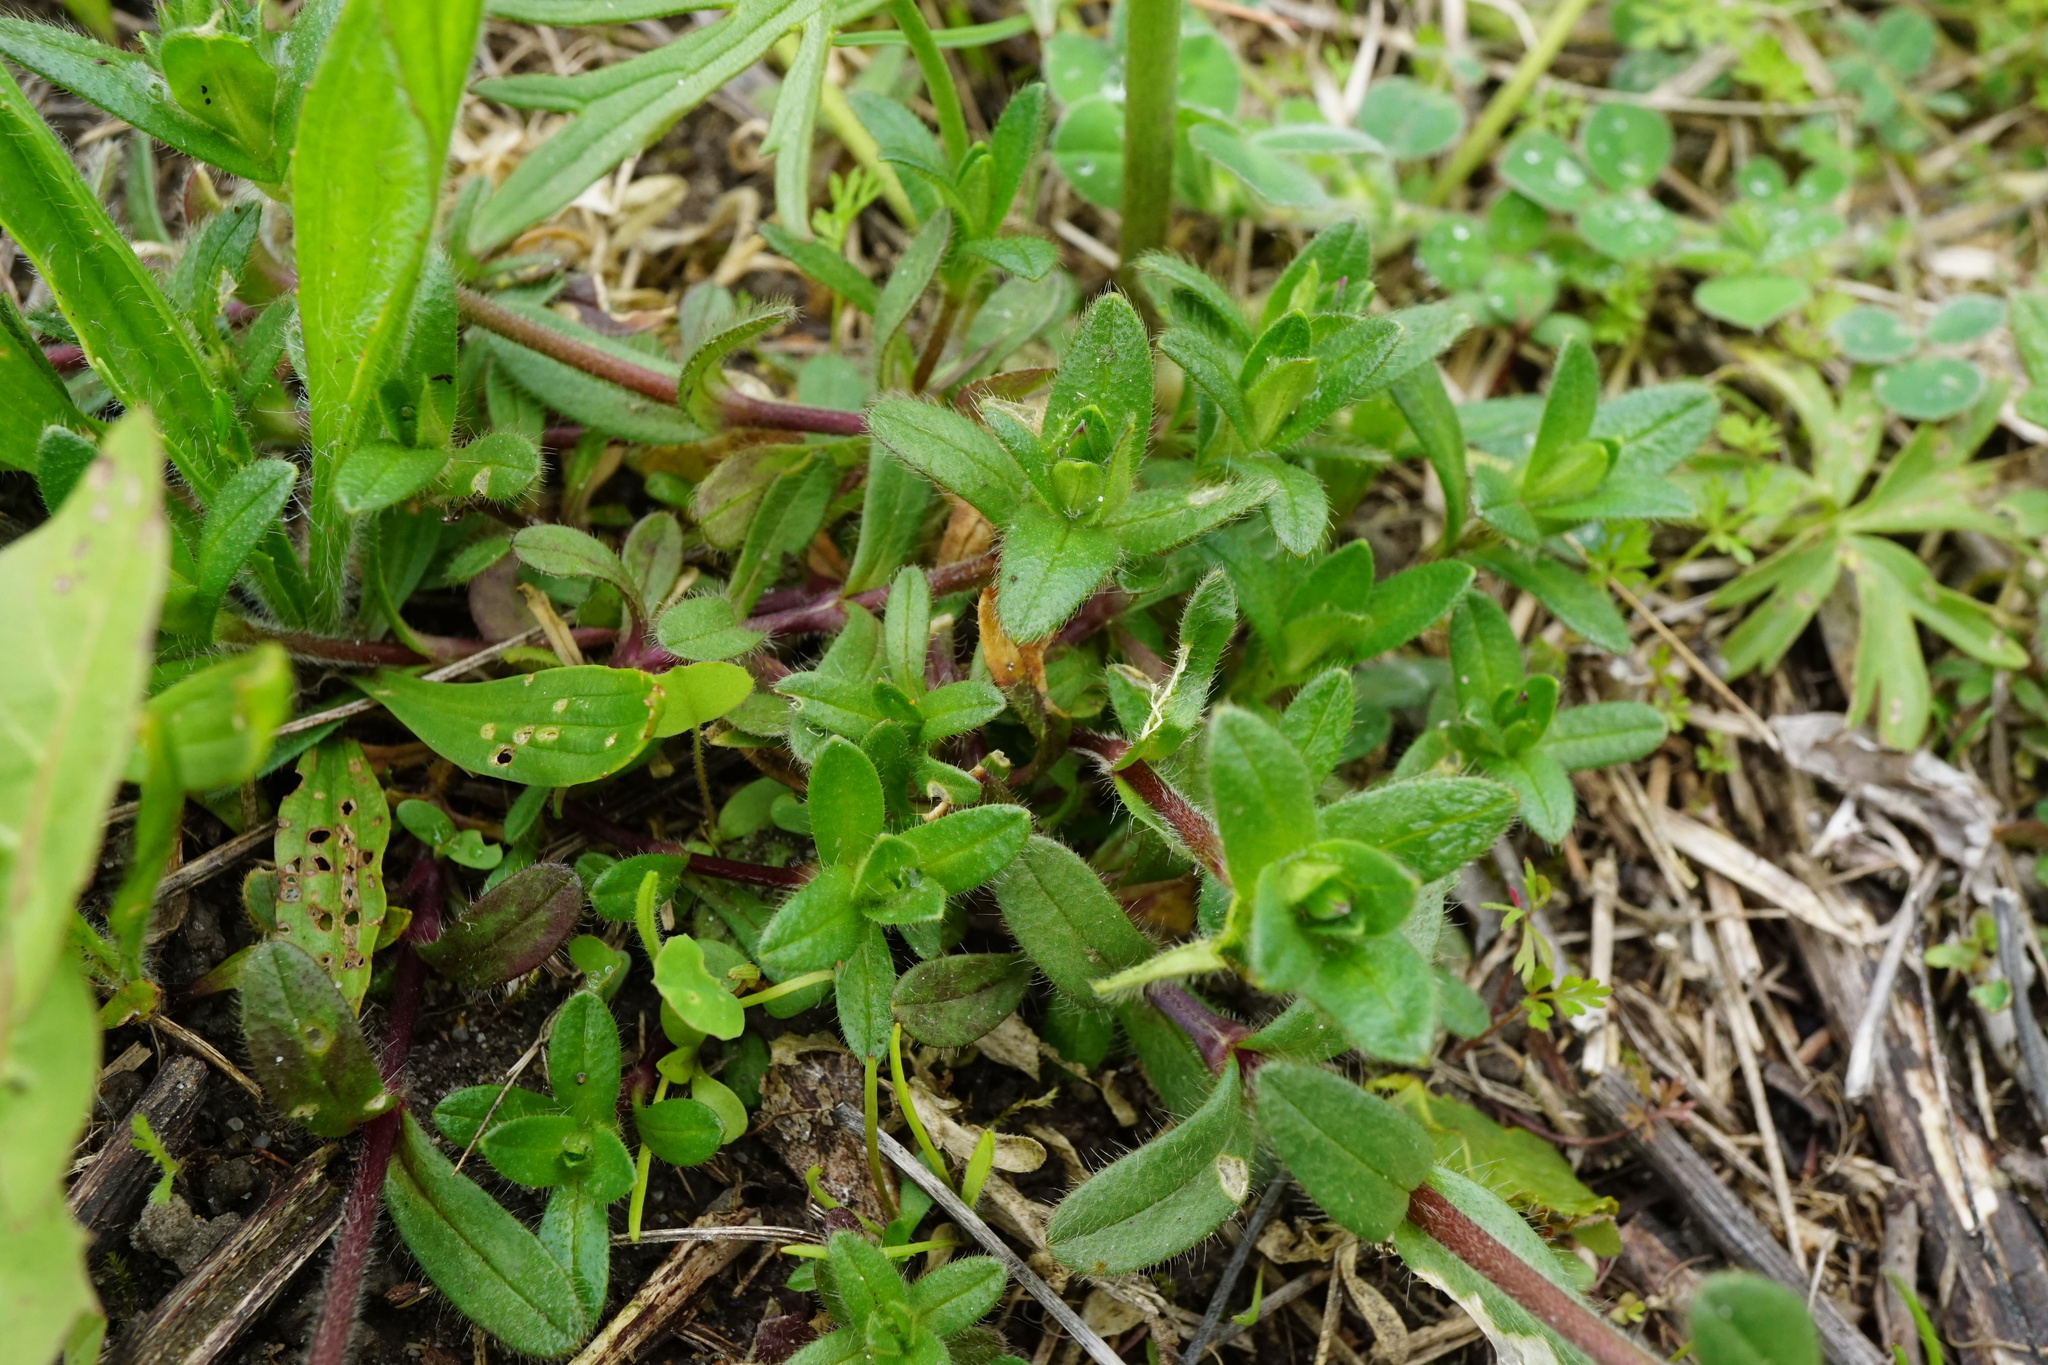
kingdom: Plantae
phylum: Tracheophyta
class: Magnoliopsida
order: Caryophyllales
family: Caryophyllaceae
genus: Cerastium
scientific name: Cerastium holosteoides
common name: Big chickweed
